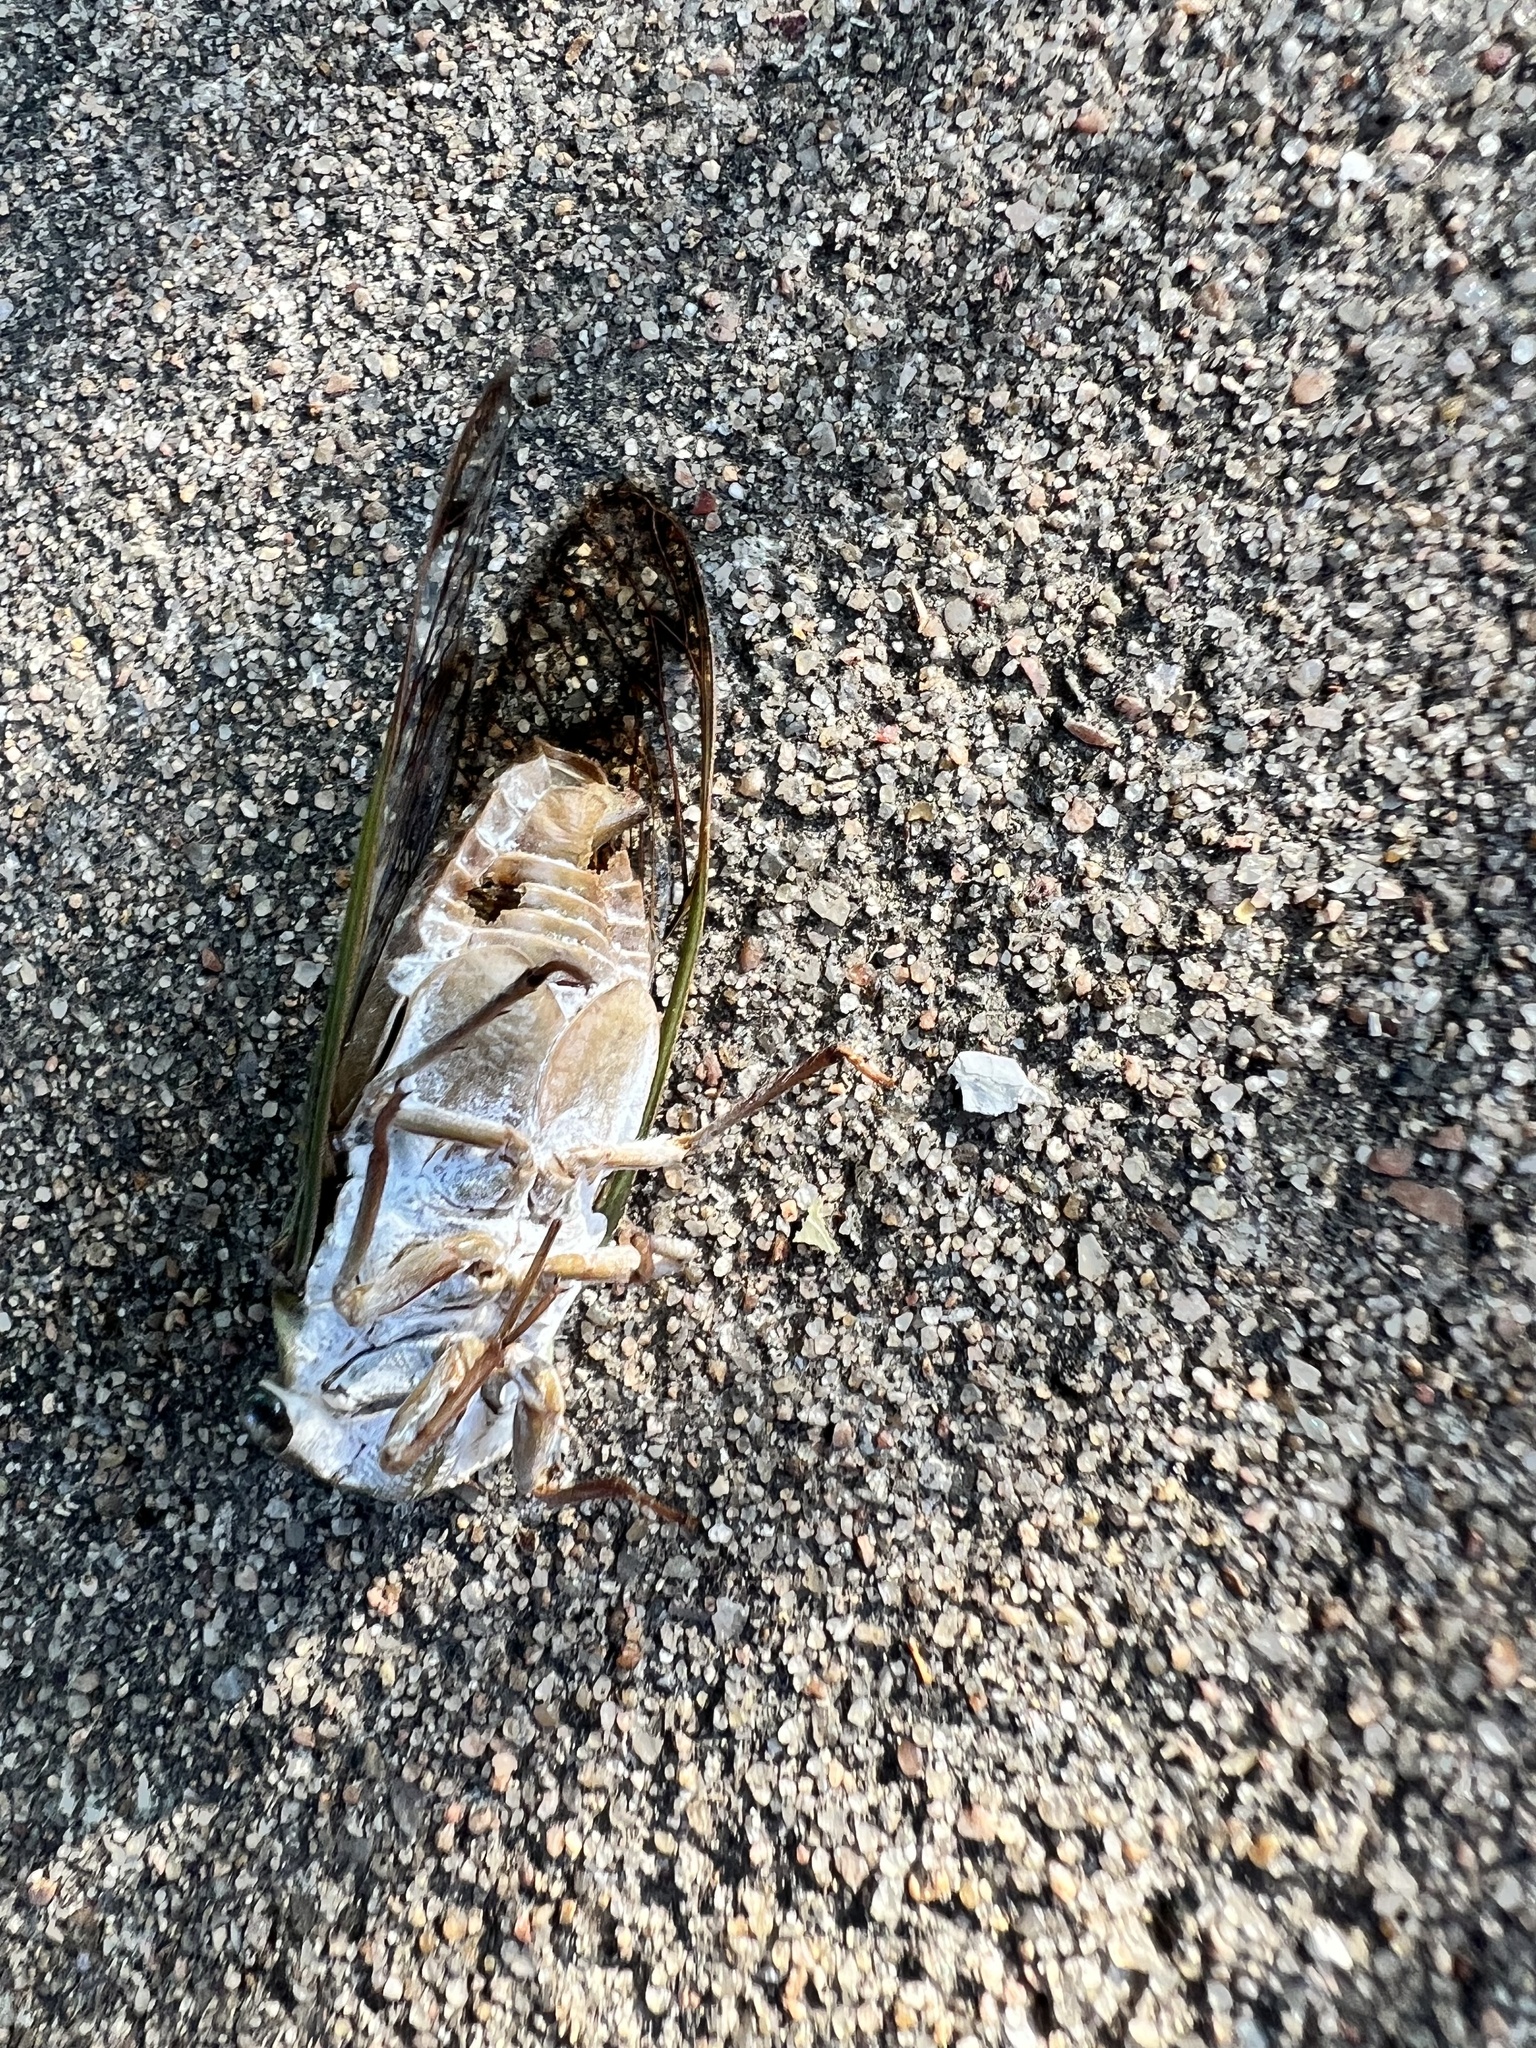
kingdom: Animalia
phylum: Arthropoda
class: Insecta
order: Hemiptera
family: Cicadidae
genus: Neotibicen
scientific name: Neotibicen superbus
